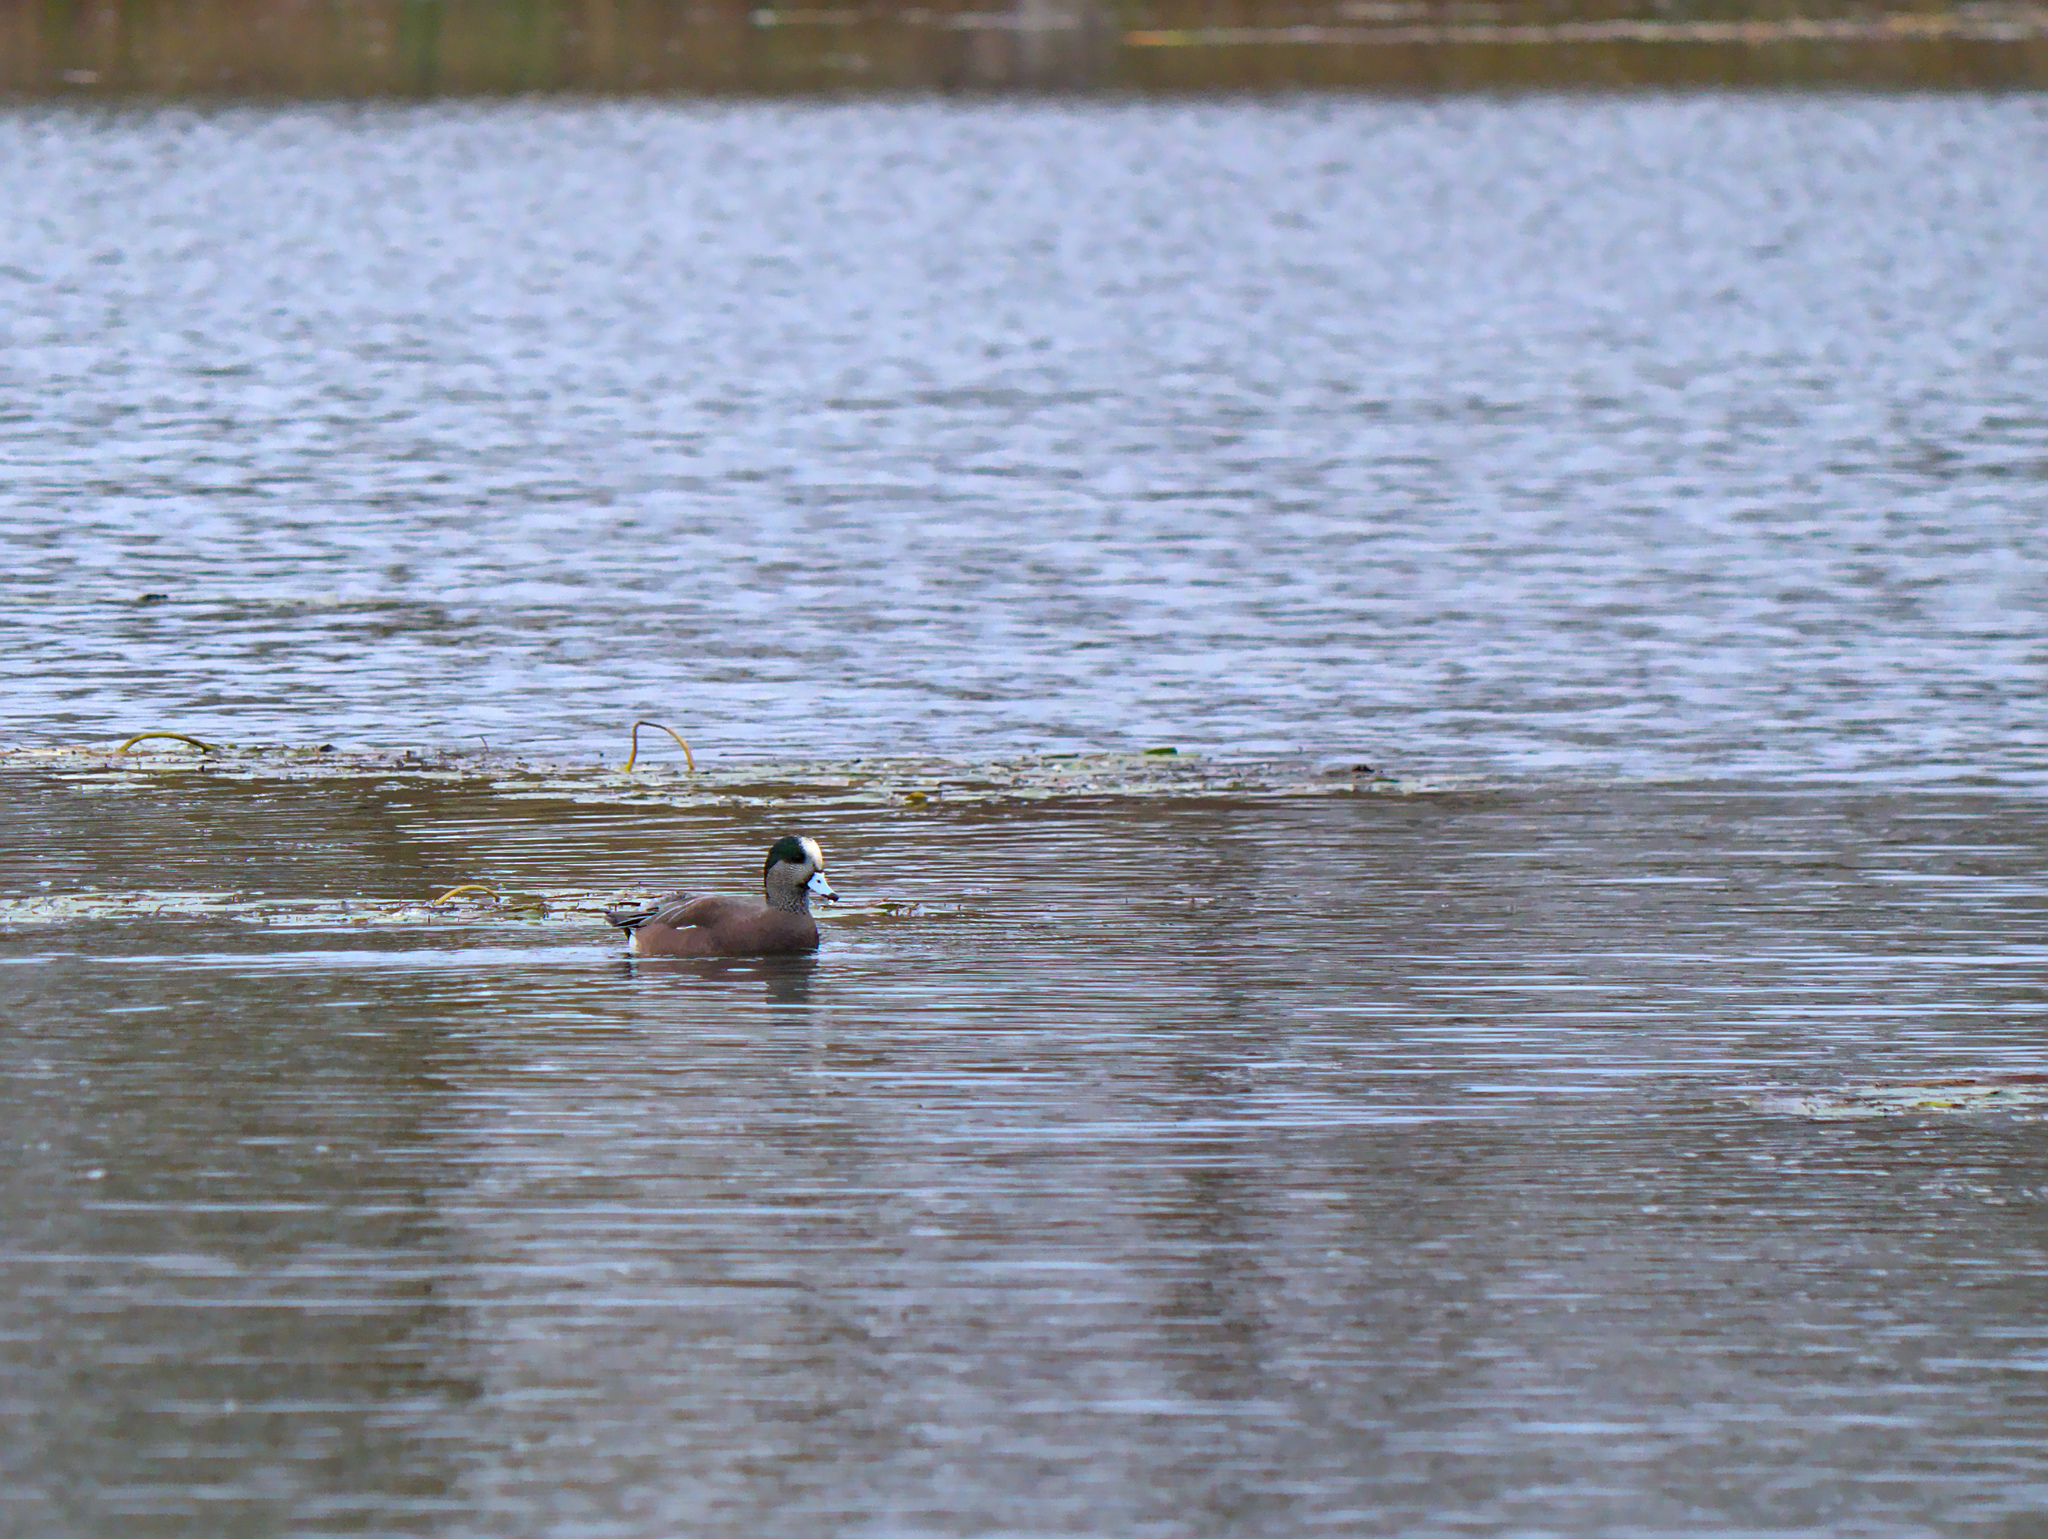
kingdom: Animalia
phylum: Chordata
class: Aves
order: Anseriformes
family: Anatidae
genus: Mareca
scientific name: Mareca americana
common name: American wigeon
